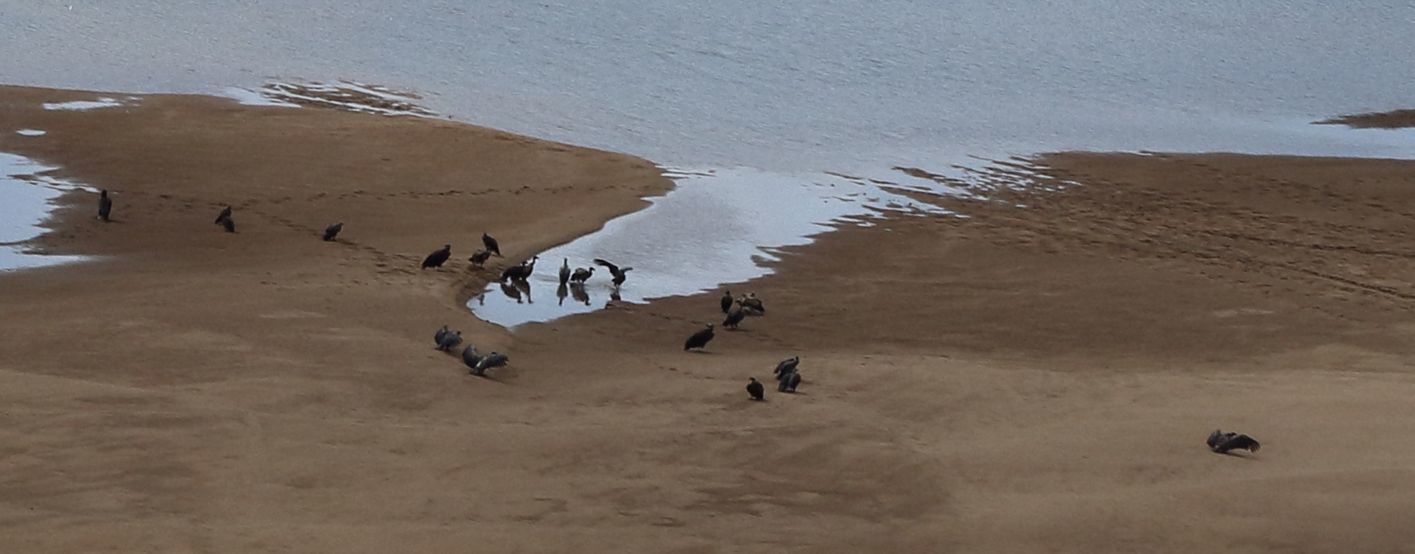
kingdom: Animalia
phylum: Chordata
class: Aves
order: Accipitriformes
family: Accipitridae
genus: Gyps
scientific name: Gyps africanus
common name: White-backed vulture
